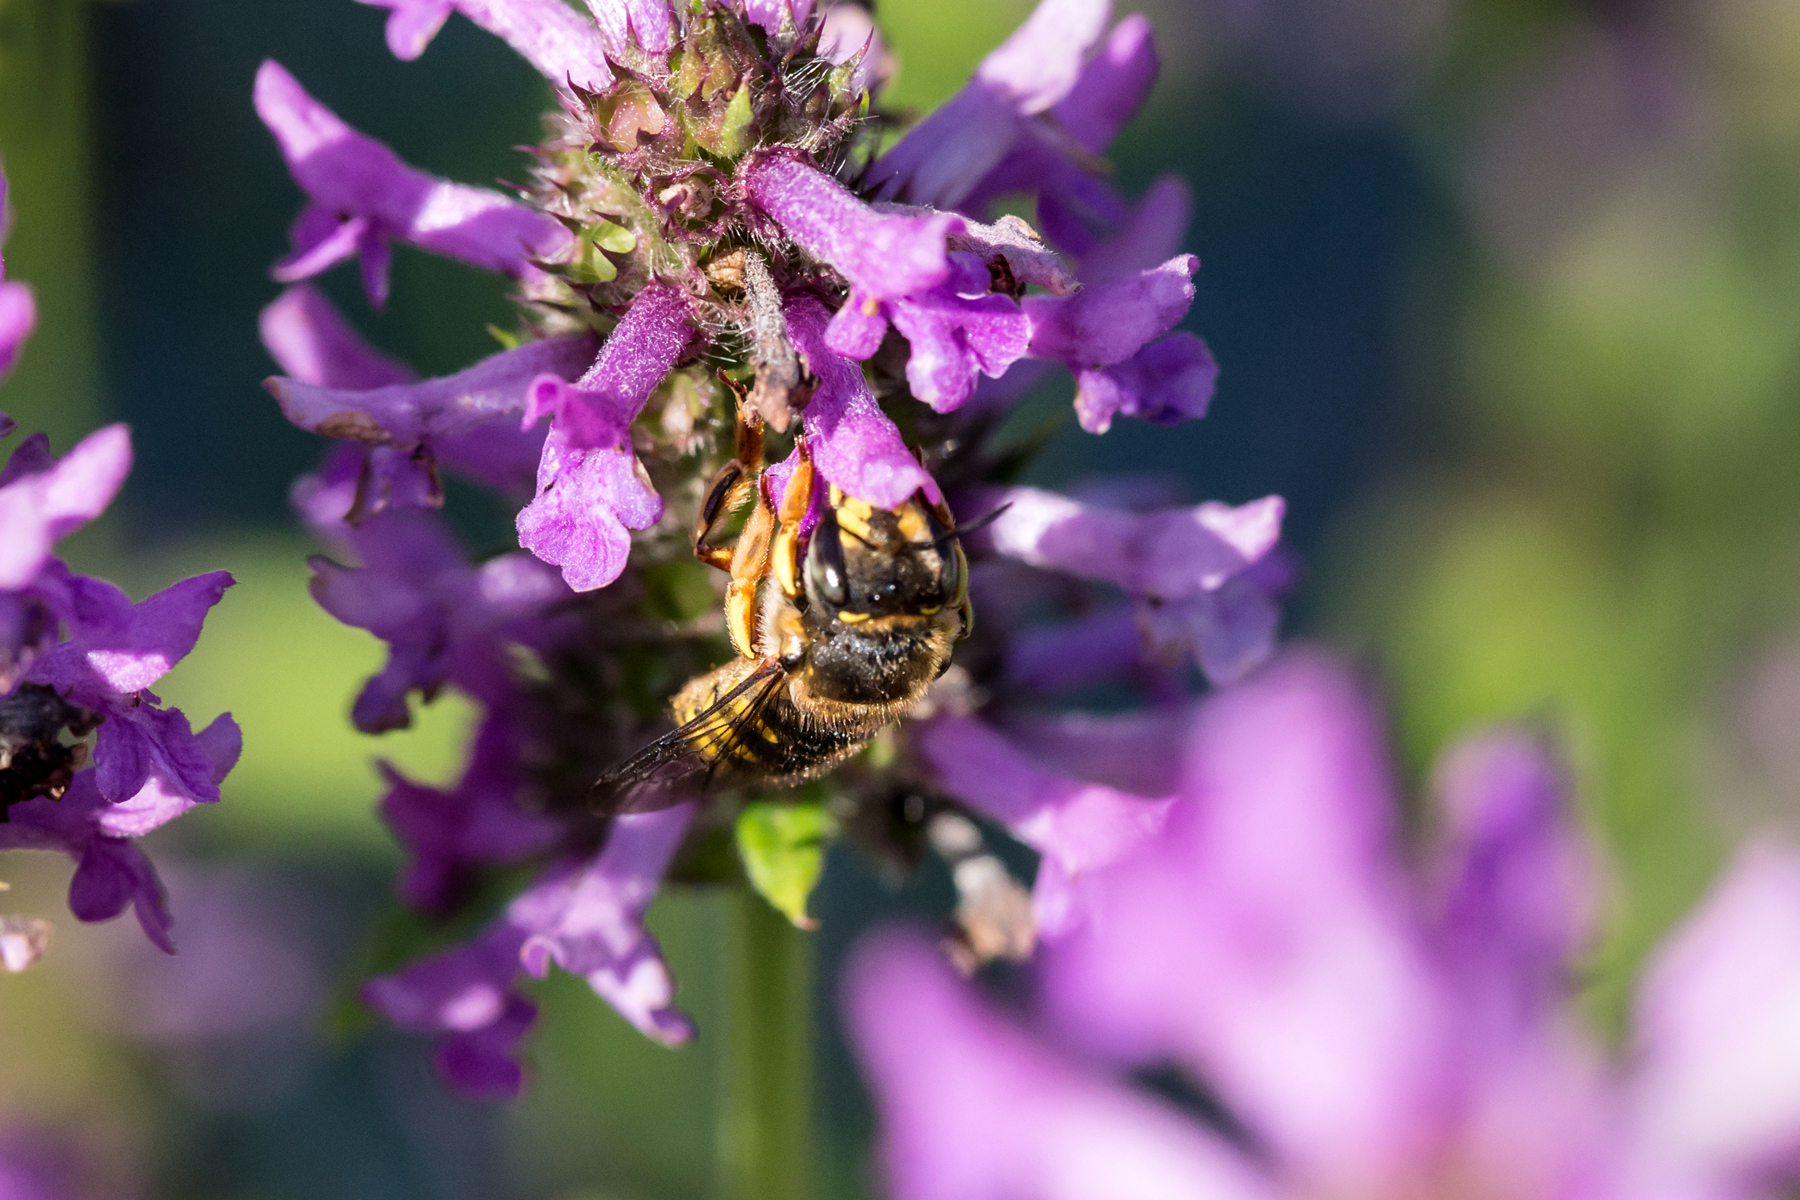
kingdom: Animalia
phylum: Arthropoda
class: Insecta
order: Hymenoptera
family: Megachilidae
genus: Anthidium
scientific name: Anthidium manicatum
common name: Wool carder bee
